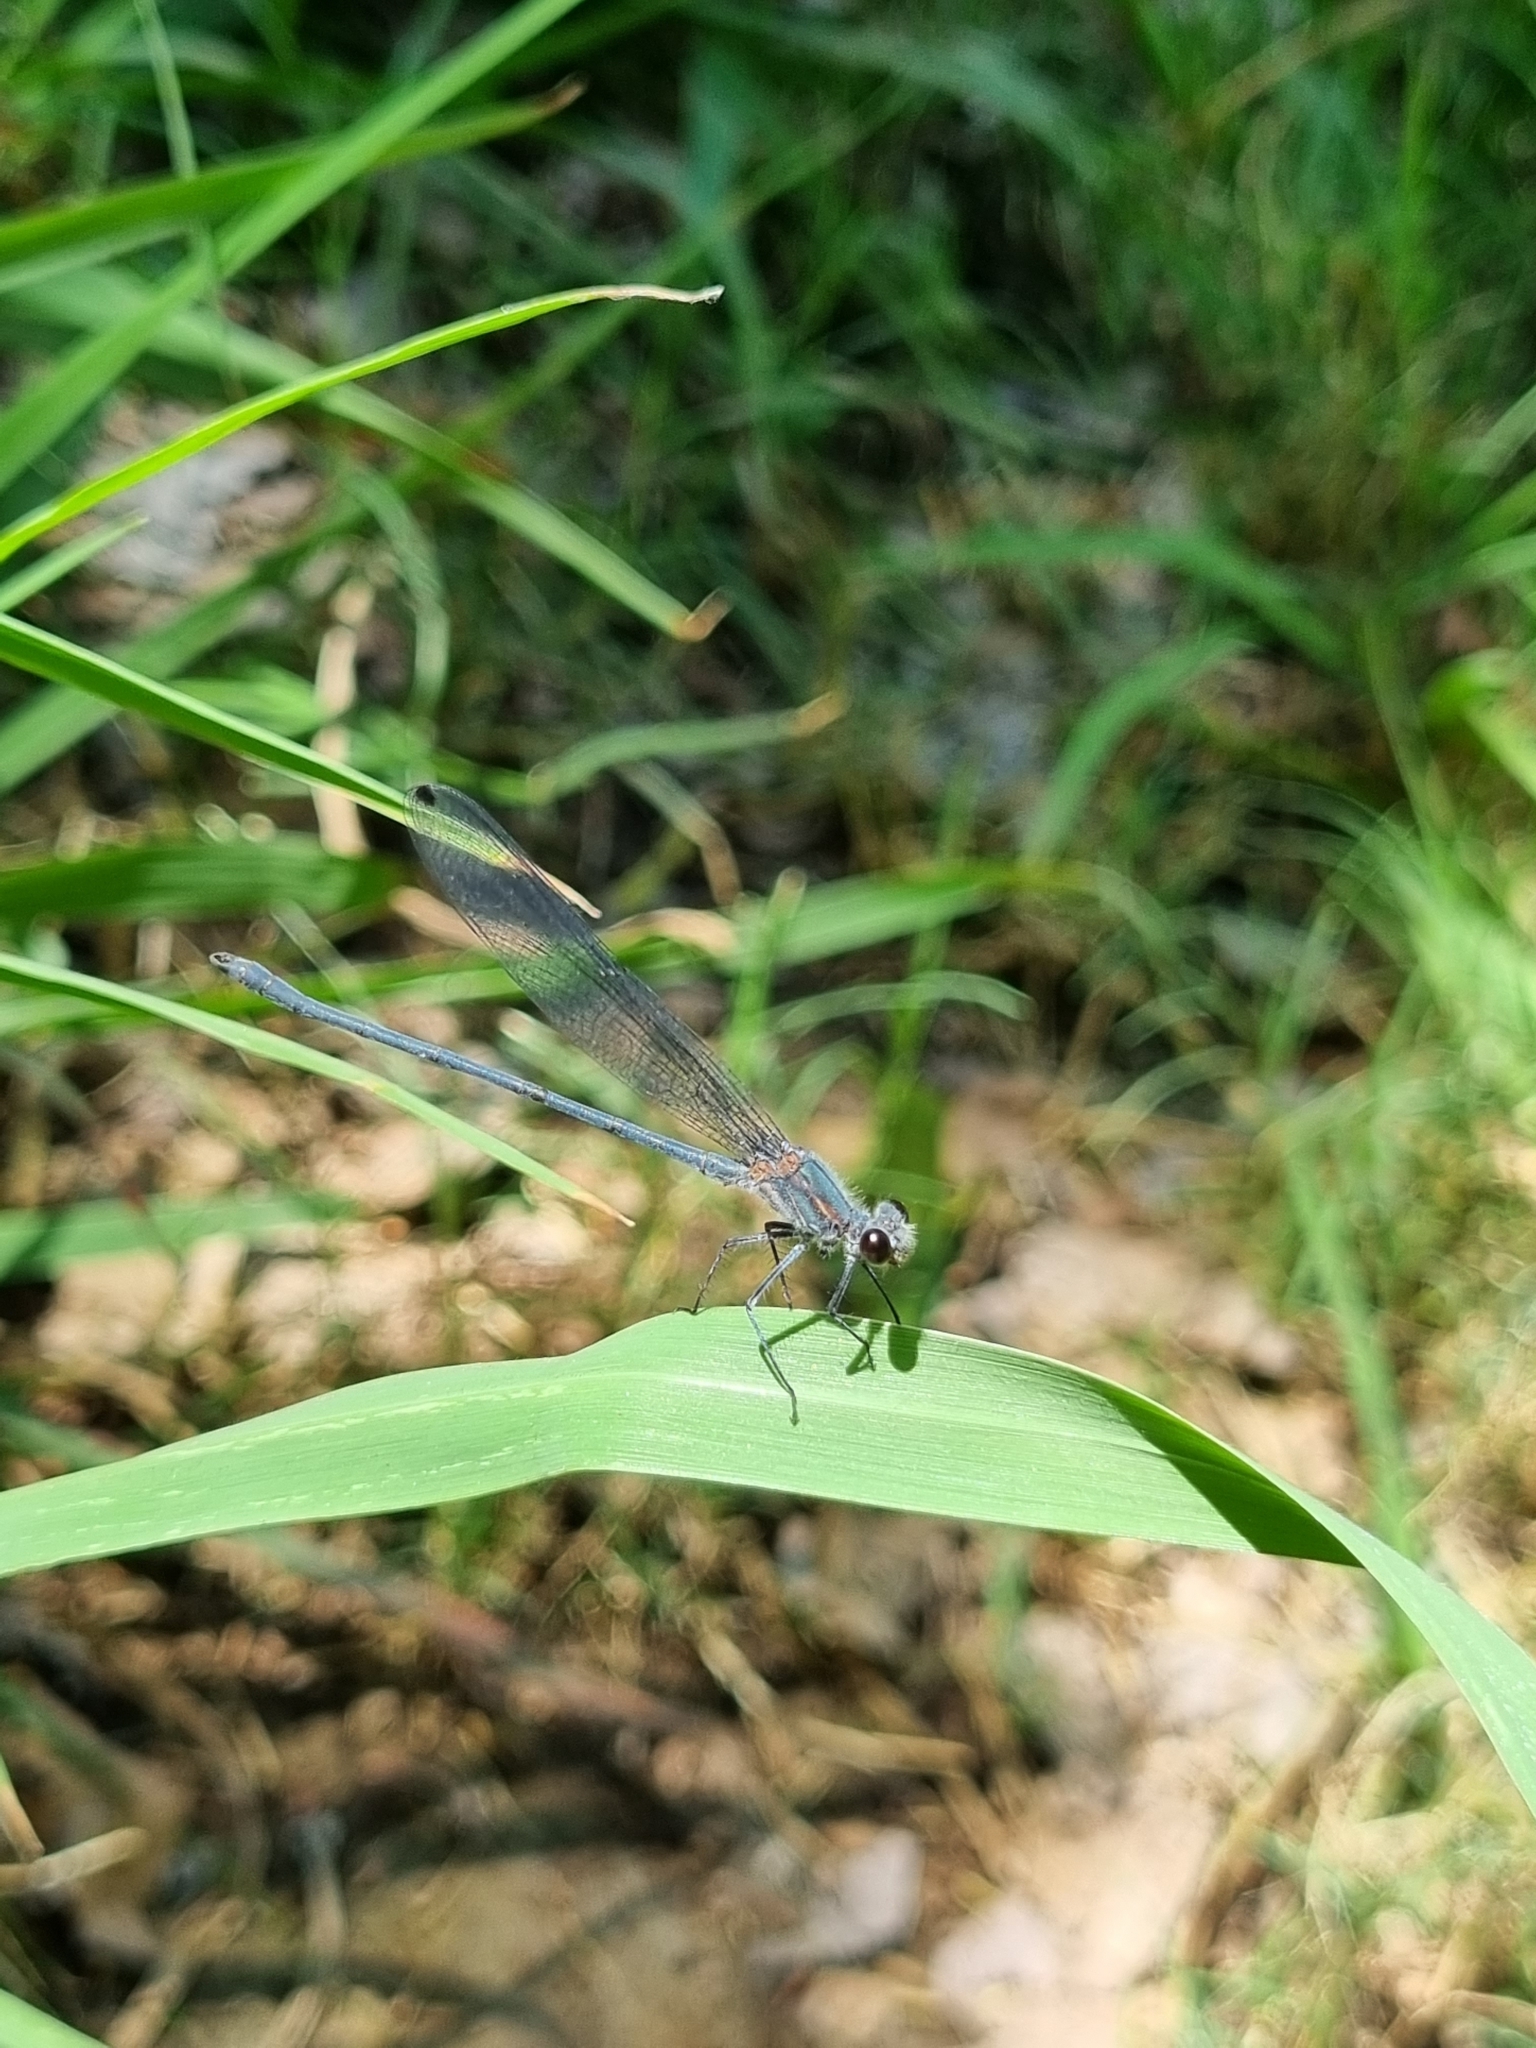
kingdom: Animalia
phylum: Arthropoda
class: Insecta
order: Odonata
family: Calopterygidae
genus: Mnesarete
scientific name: Mnesarete grisea
